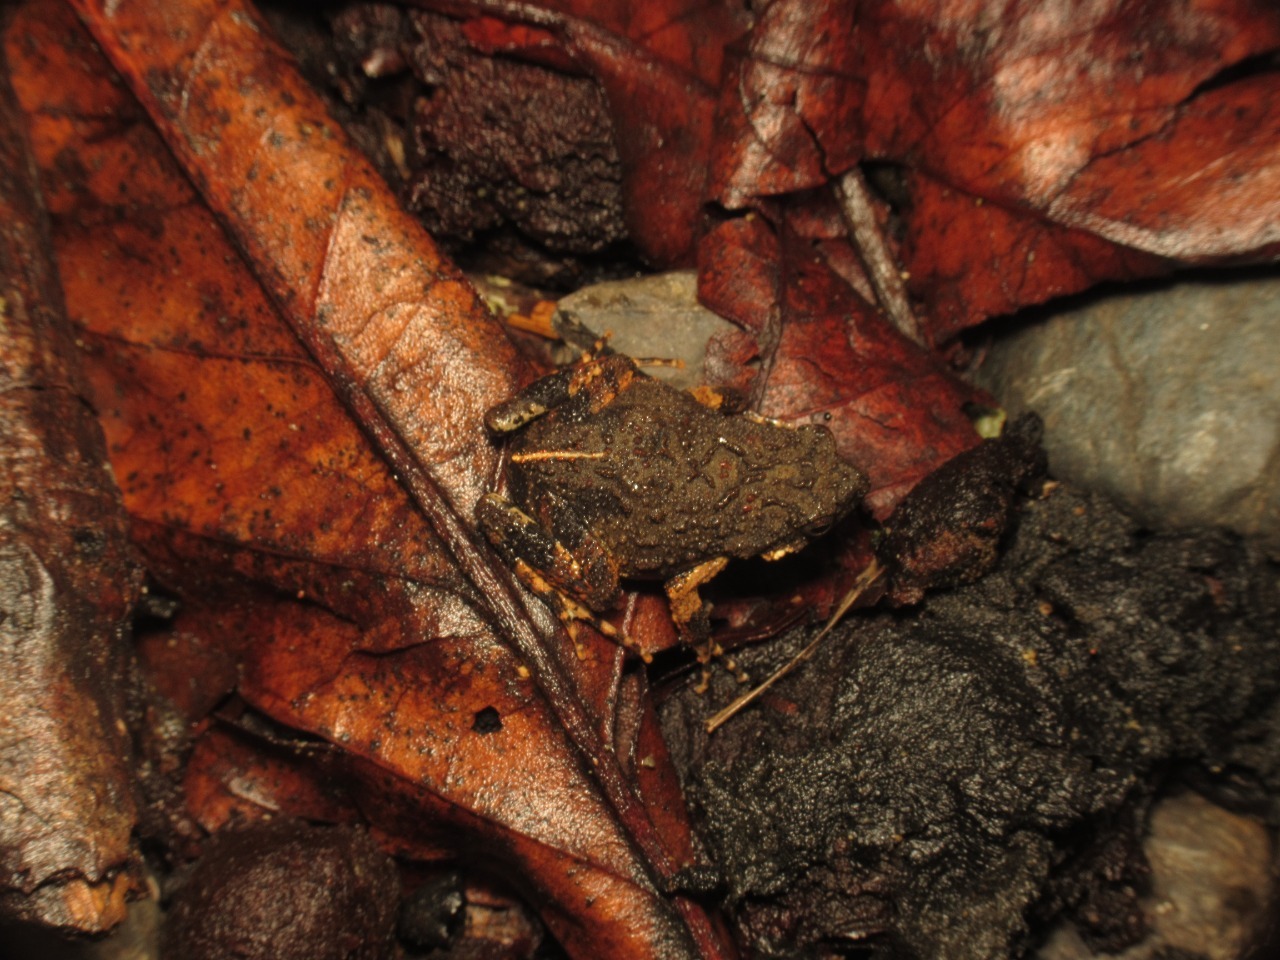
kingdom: Animalia
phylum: Chordata
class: Amphibia
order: Anura
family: Leptodactylidae
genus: Engystomops
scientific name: Engystomops pustulosus
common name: Tungara frog
